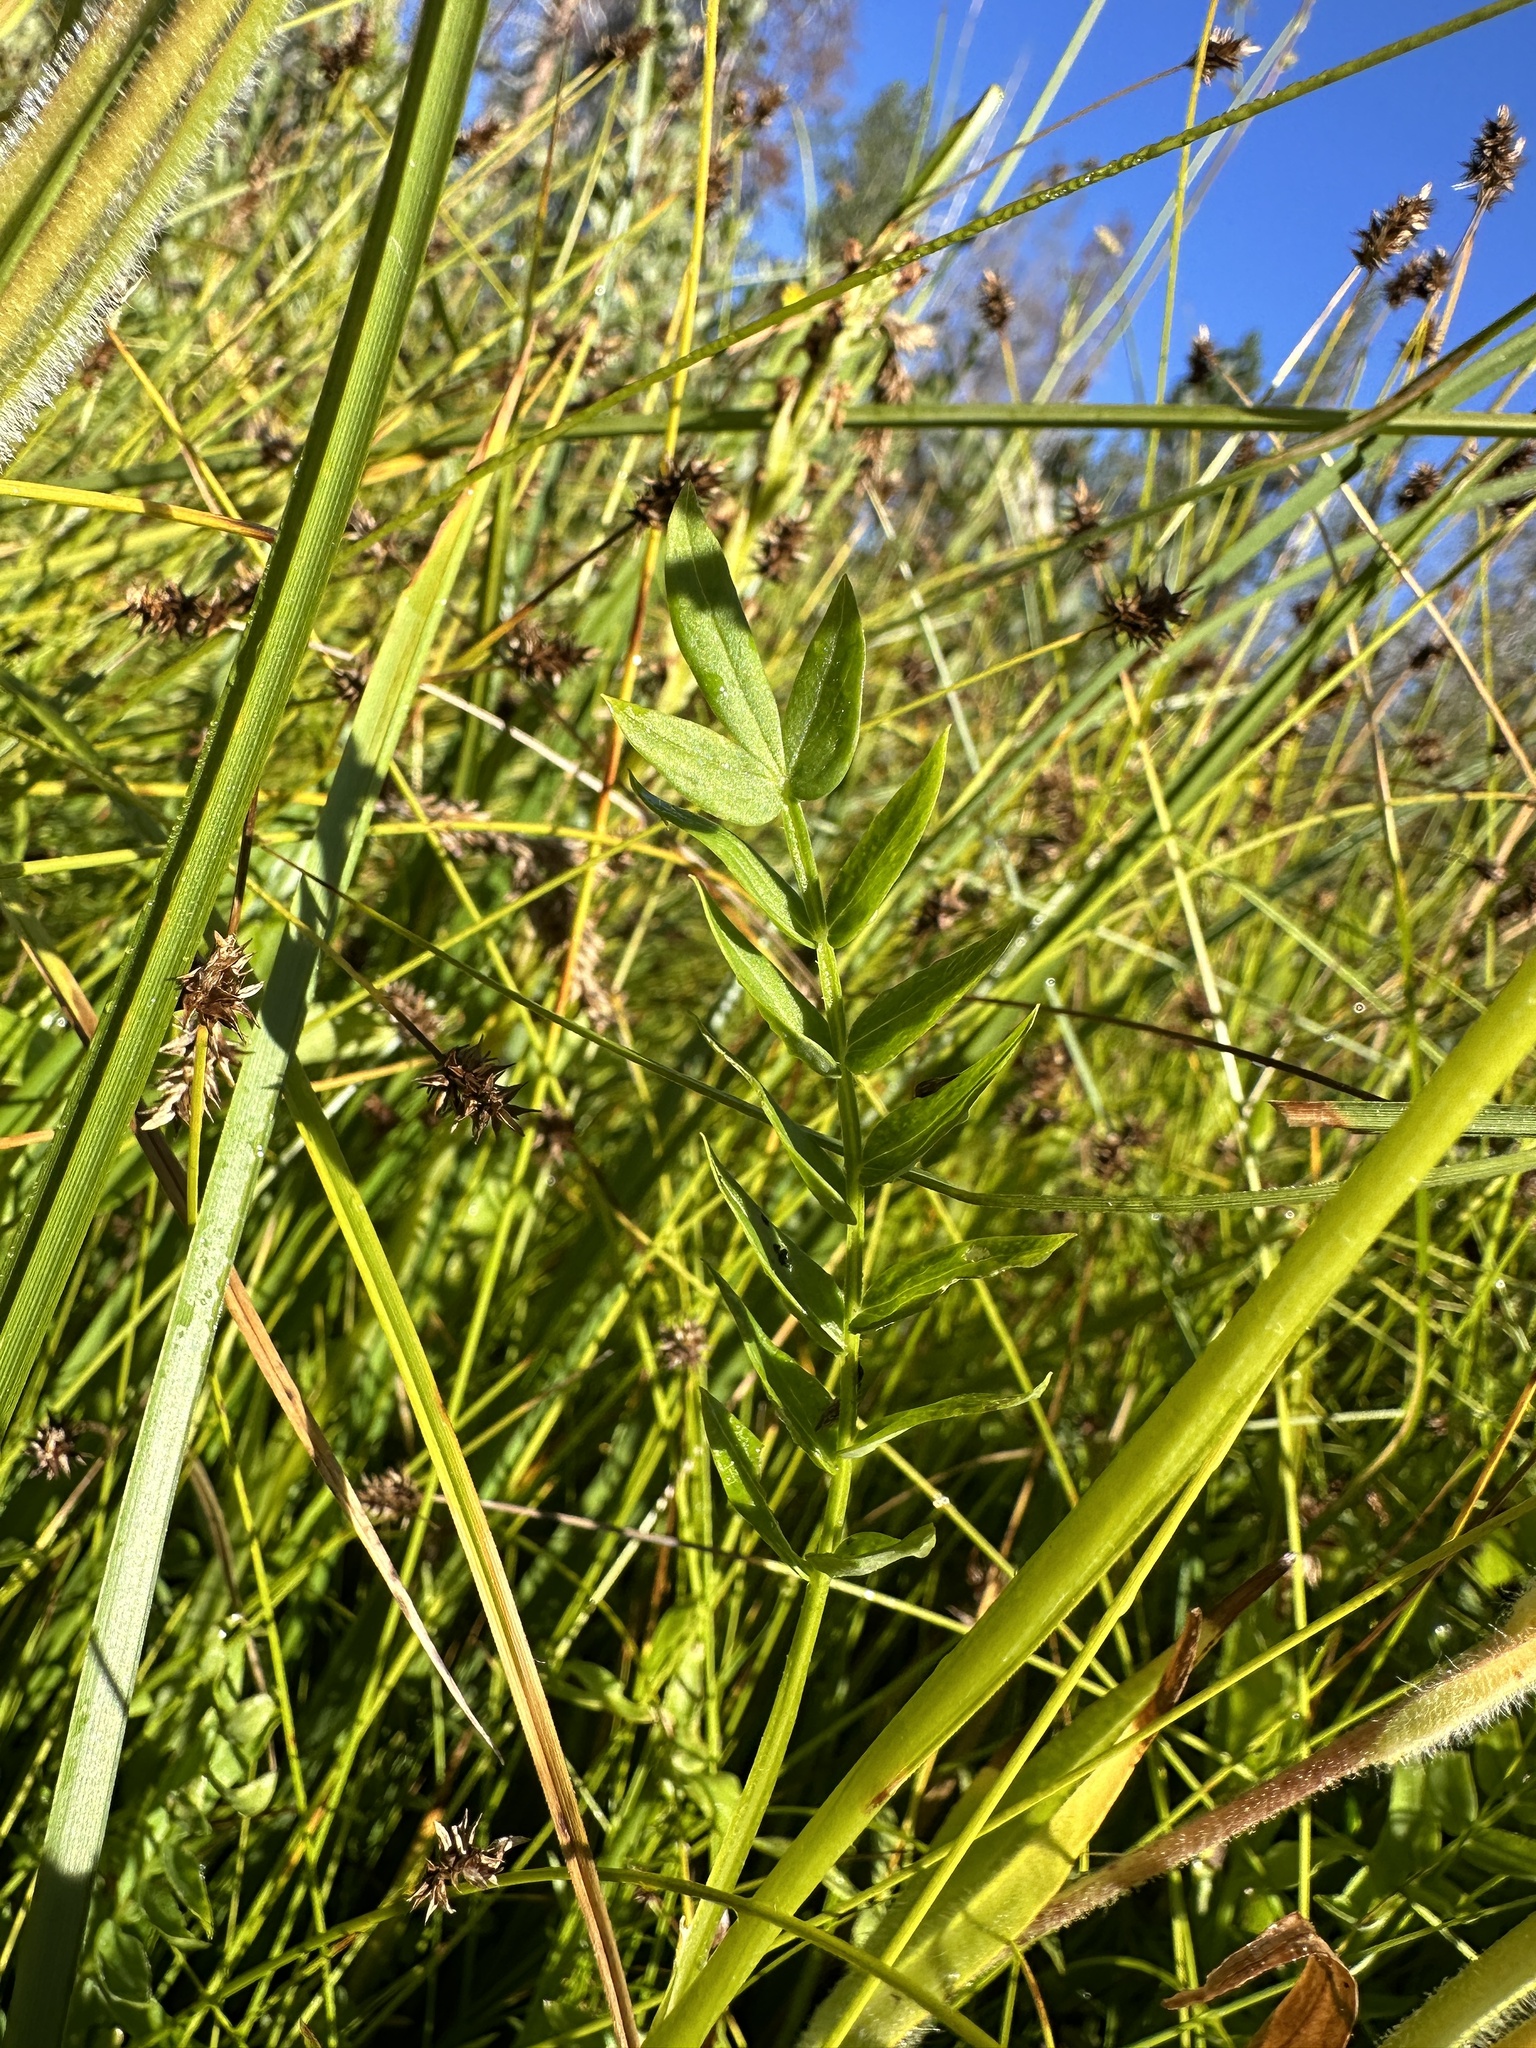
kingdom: Plantae
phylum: Tracheophyta
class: Magnoliopsida
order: Ericales
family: Polemoniaceae
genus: Polemonium
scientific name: Polemonium occidentale
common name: Western jacob's-ladder
